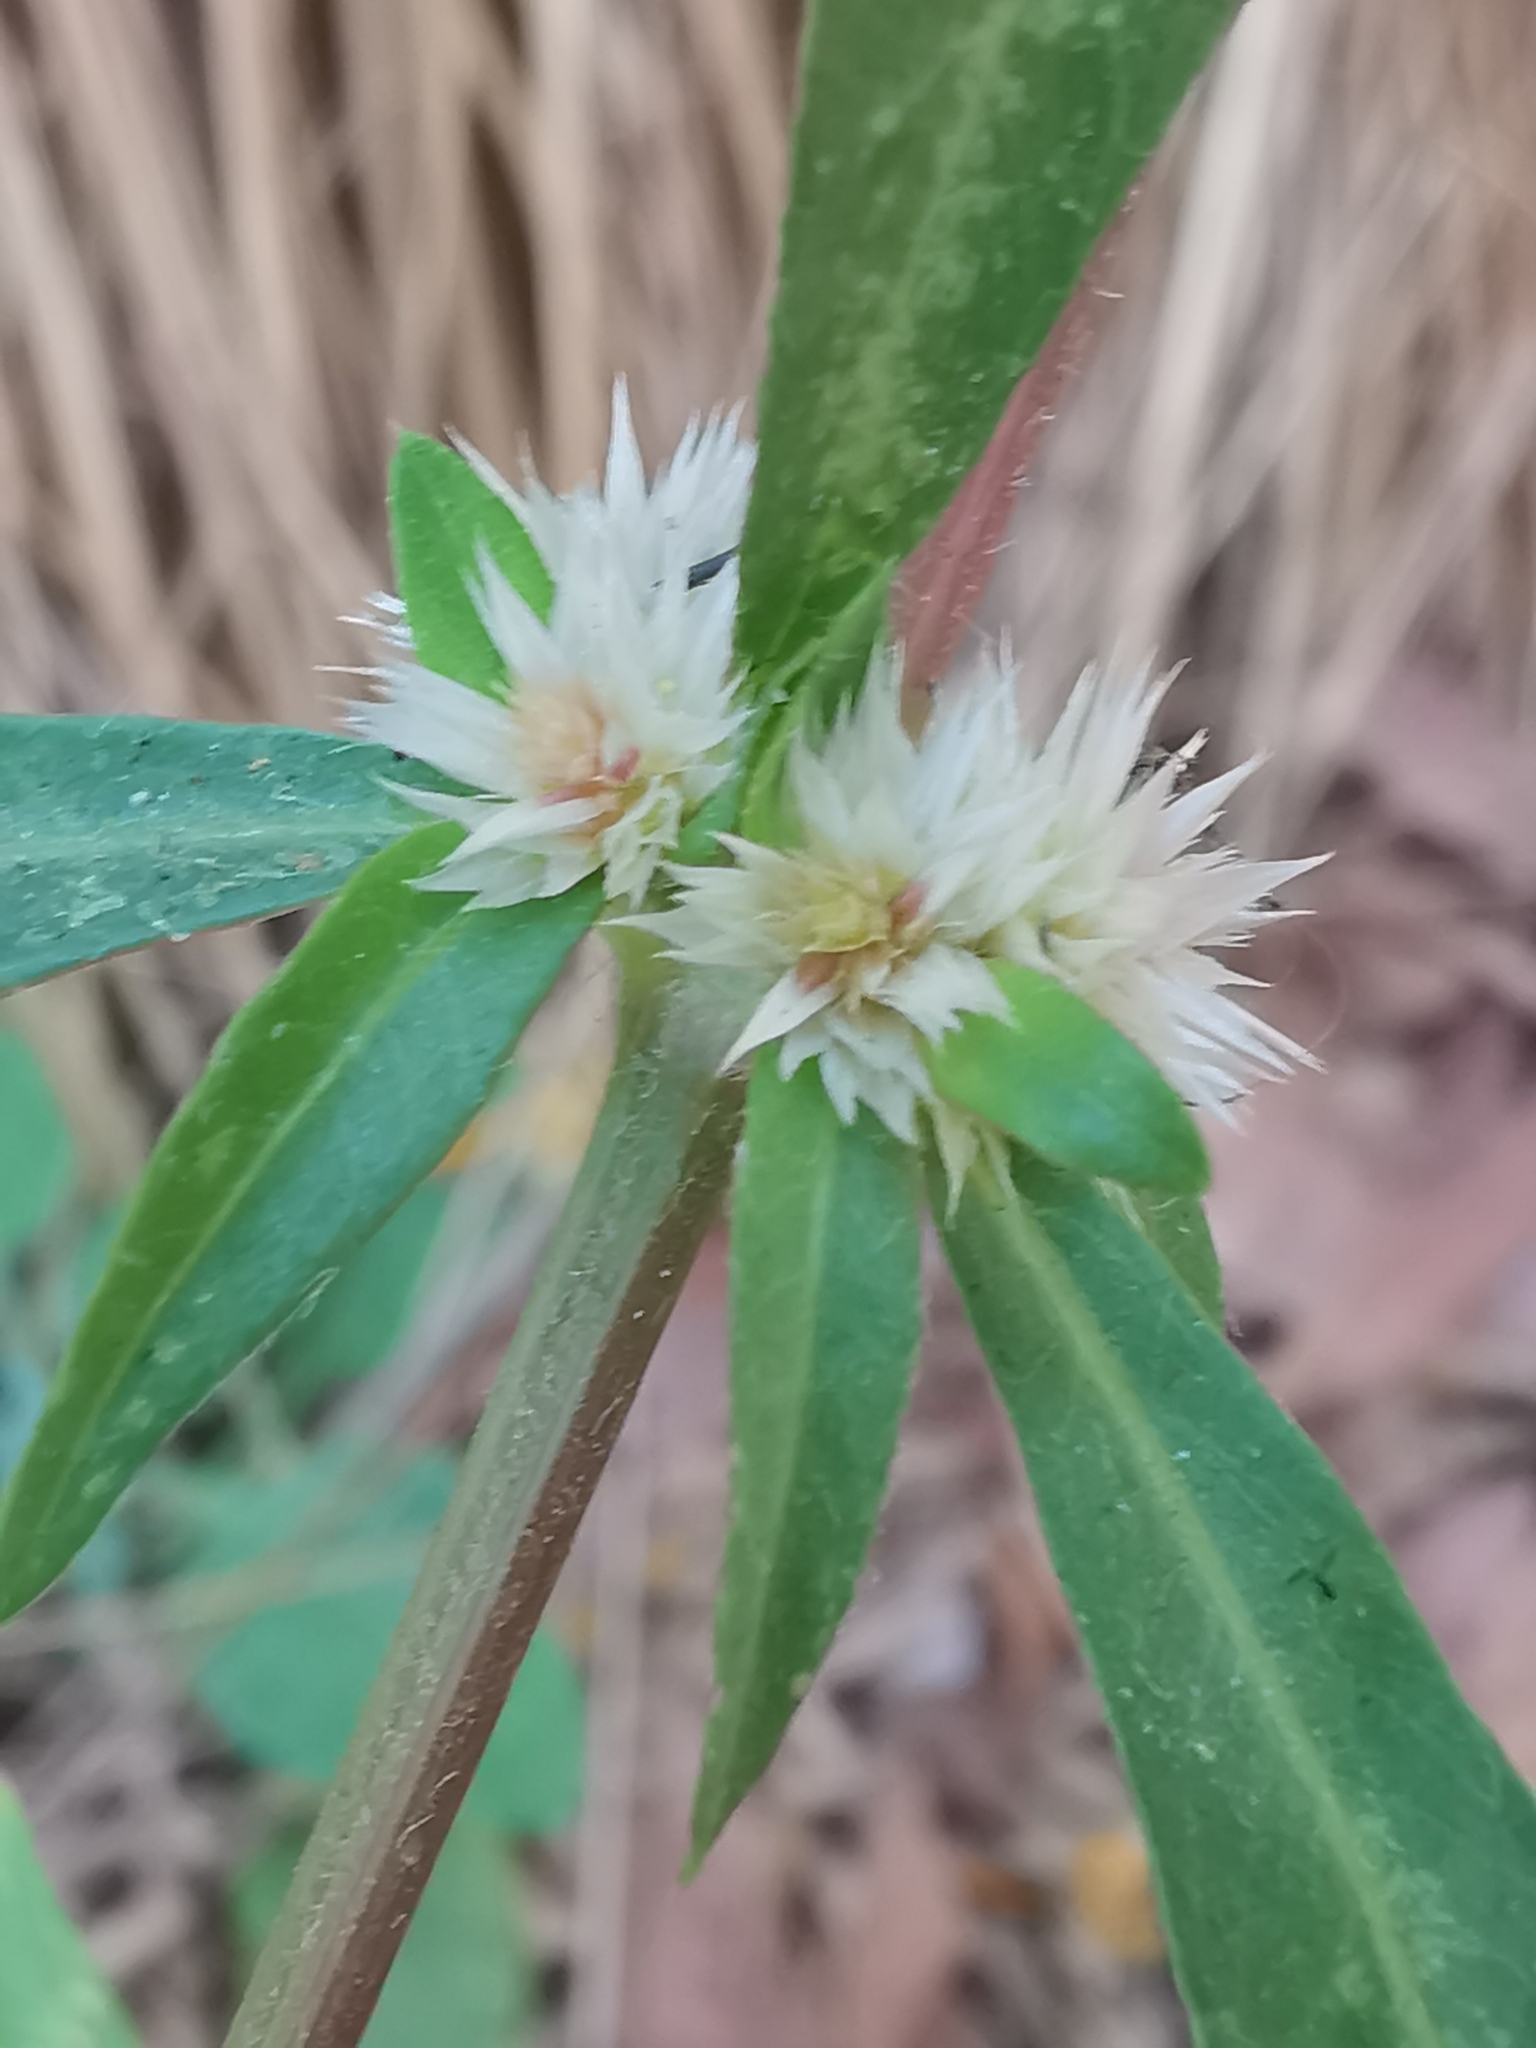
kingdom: Plantae
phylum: Tracheophyta
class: Magnoliopsida
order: Caryophyllales
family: Amaranthaceae
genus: Alternanthera
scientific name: Alternanthera sessilis
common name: Sessile joyweed
